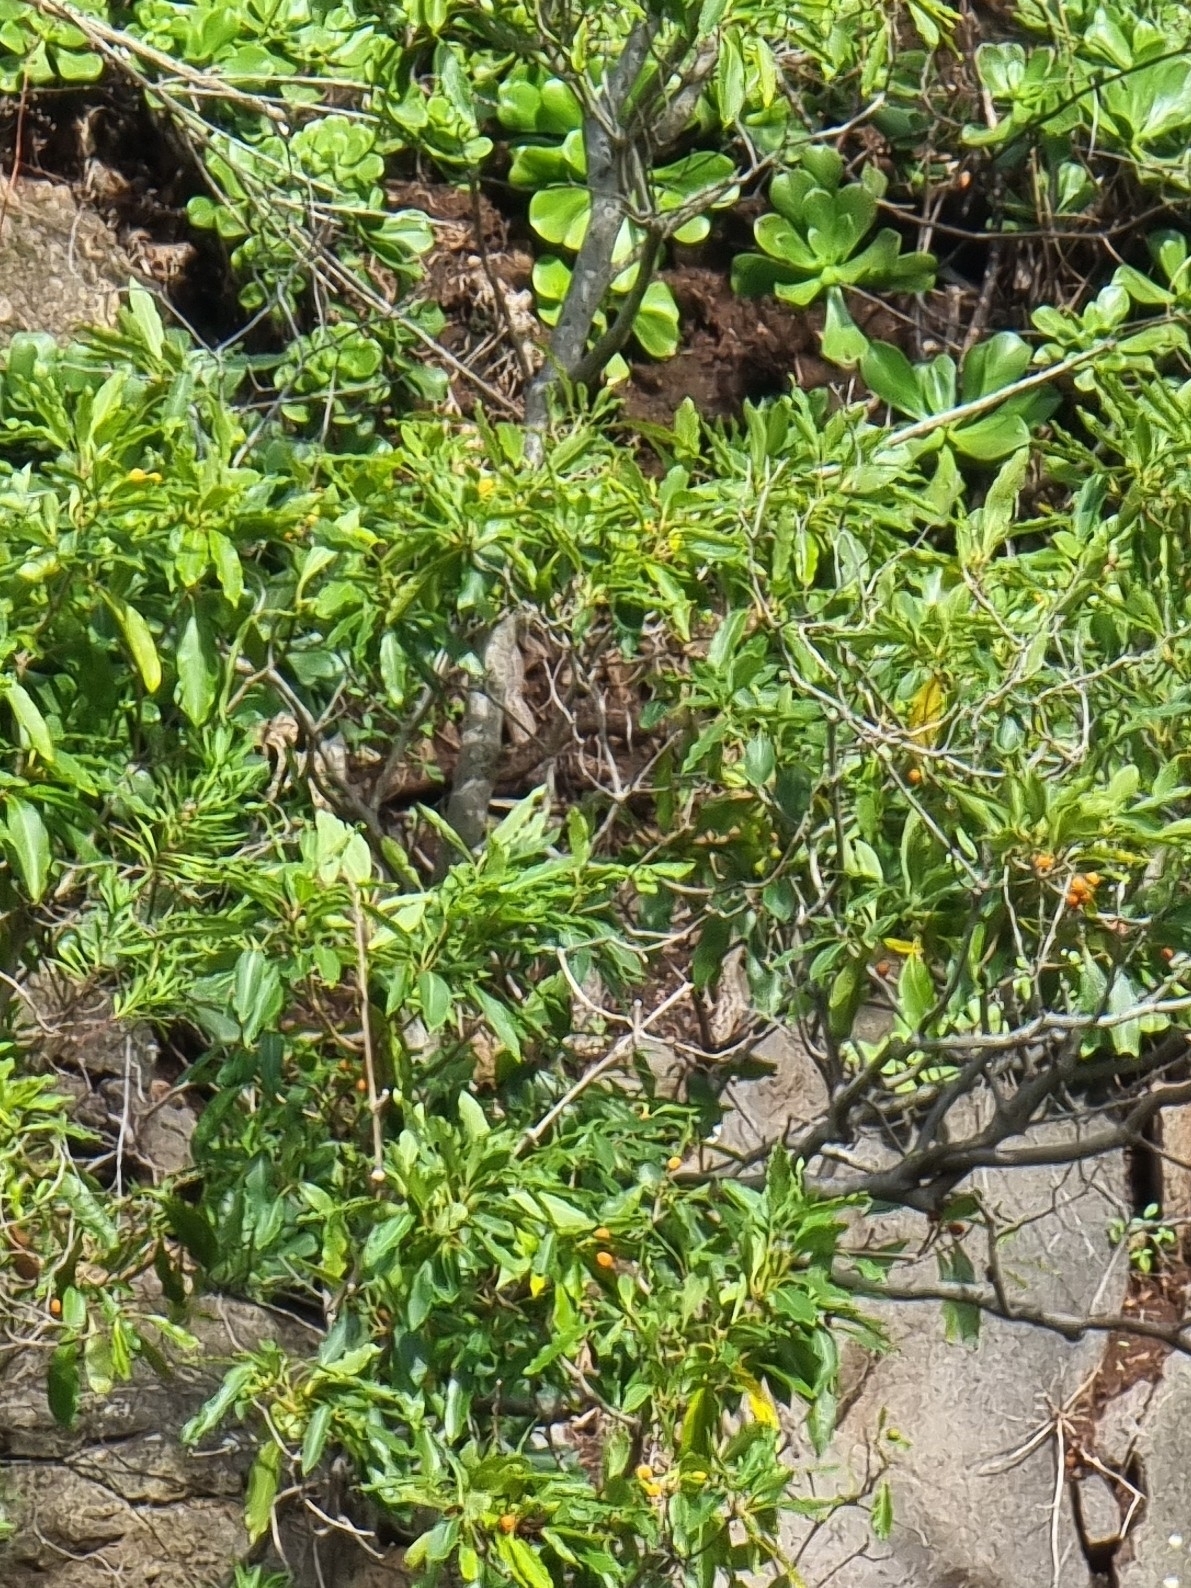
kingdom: Plantae
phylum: Tracheophyta
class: Magnoliopsida
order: Apiales
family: Pittosporaceae
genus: Pittosporum
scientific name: Pittosporum undulatum
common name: Australian cheesewood
